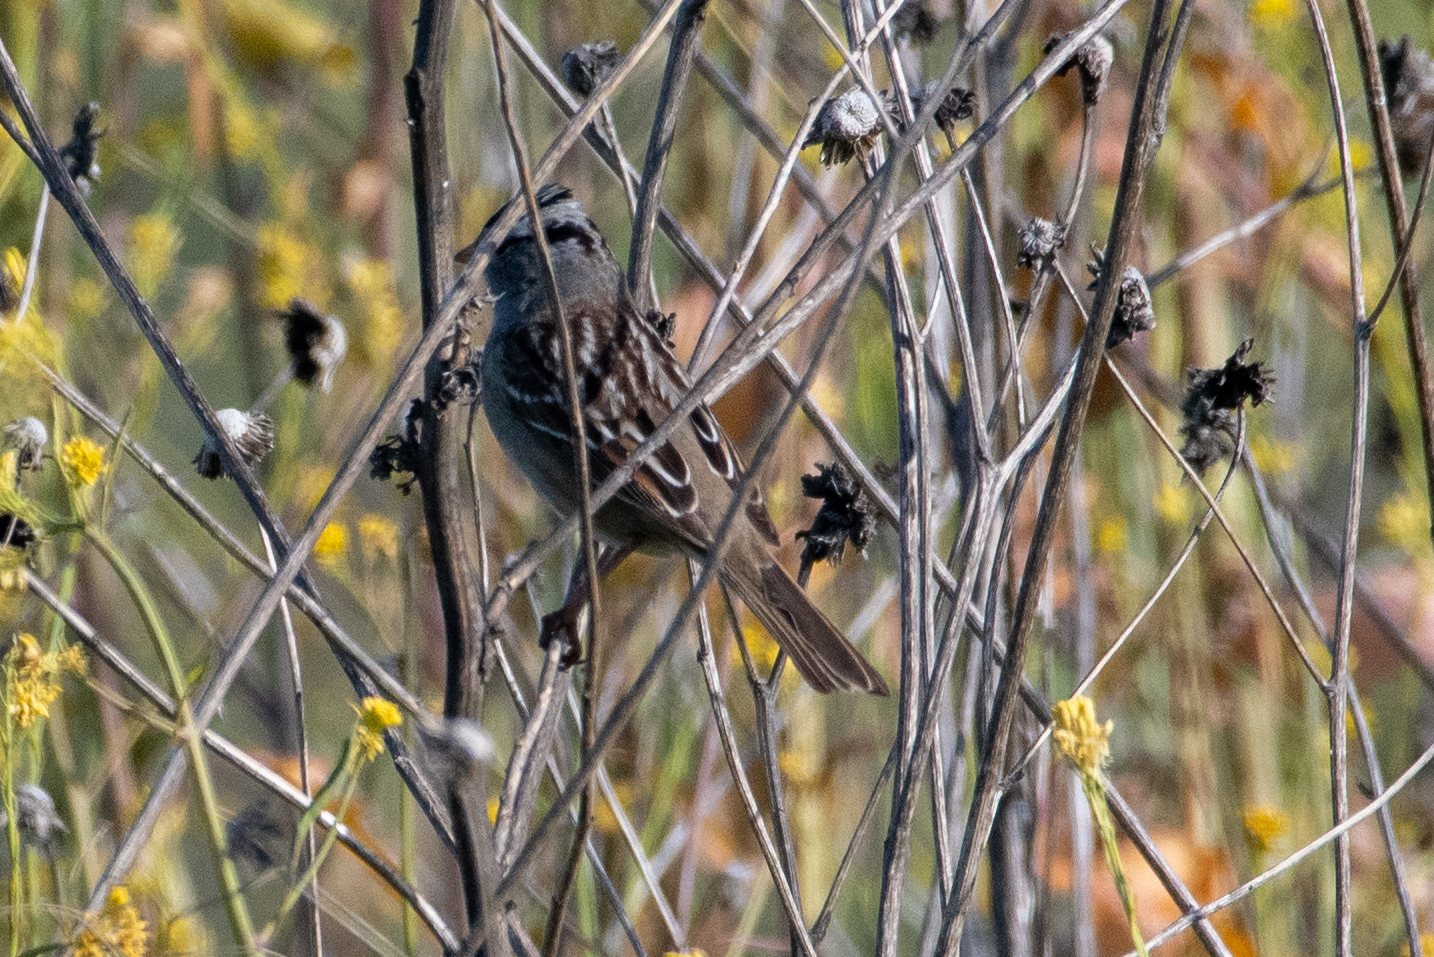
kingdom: Animalia
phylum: Chordata
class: Aves
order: Passeriformes
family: Passerellidae
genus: Zonotrichia
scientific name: Zonotrichia leucophrys
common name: White-crowned sparrow
